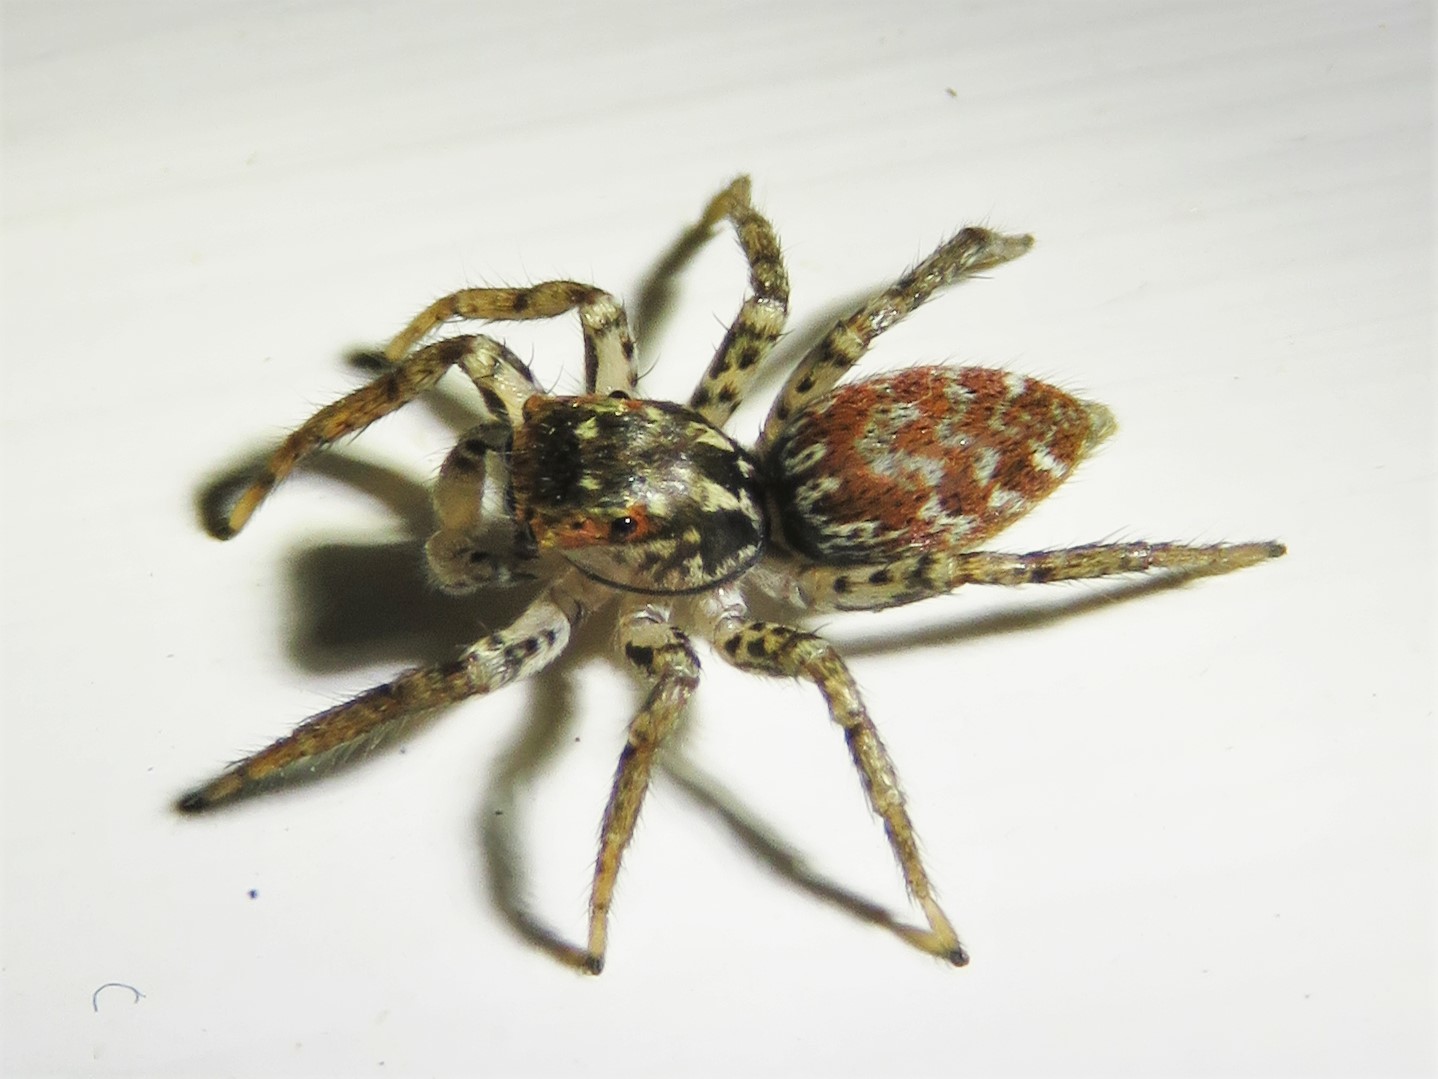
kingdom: Animalia
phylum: Arthropoda
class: Arachnida
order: Araneae
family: Salticidae
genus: Maevia
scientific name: Maevia inclemens
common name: Dimorphic jumper
